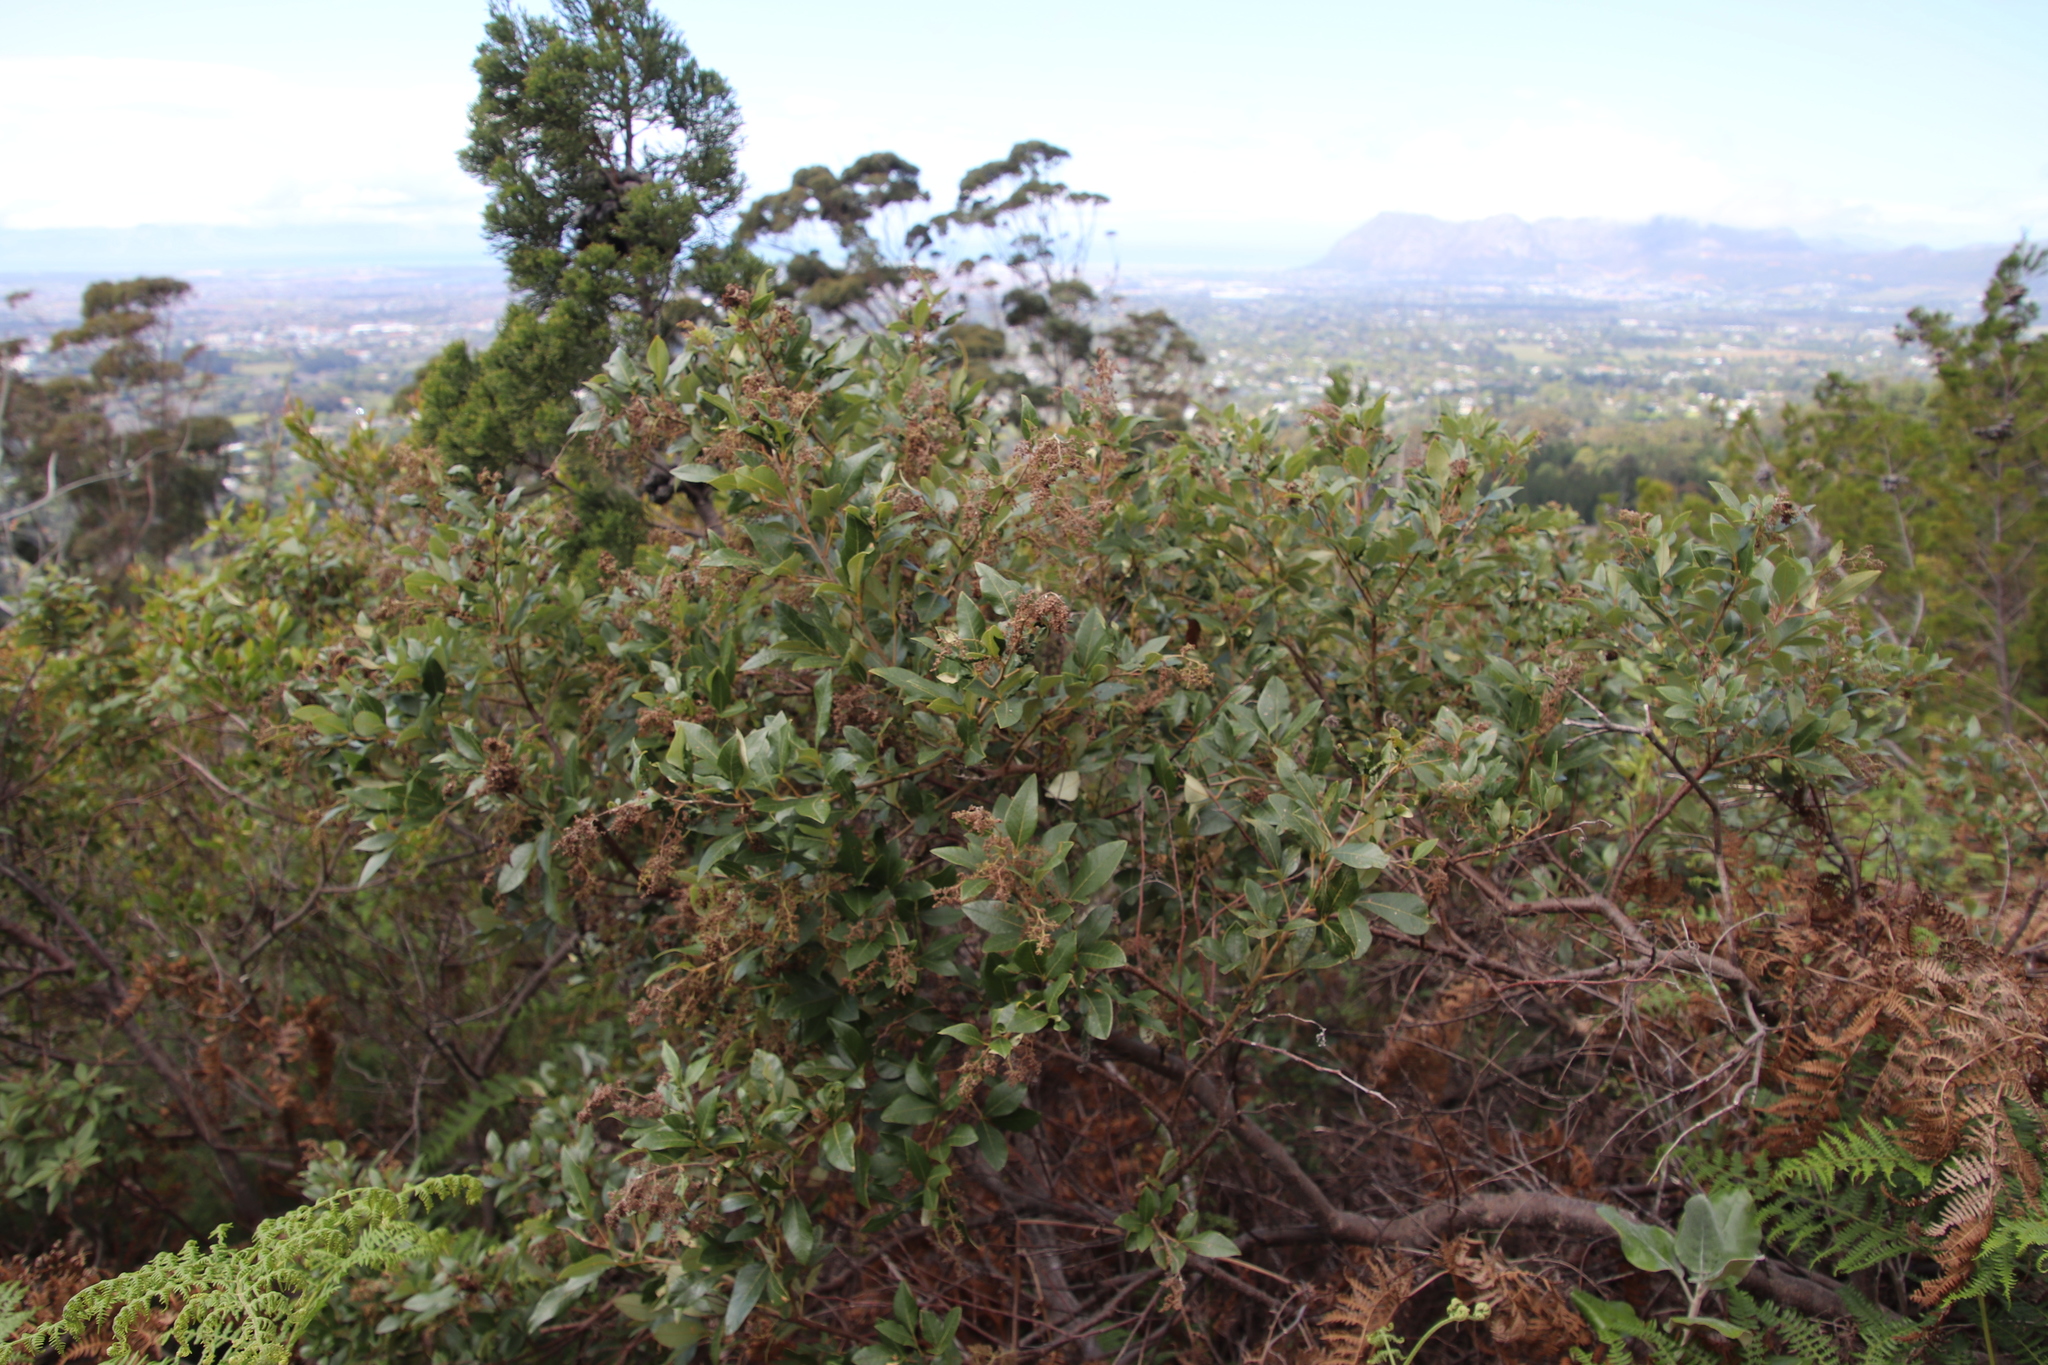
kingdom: Plantae
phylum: Tracheophyta
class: Magnoliopsida
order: Sapindales
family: Anacardiaceae
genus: Searsia
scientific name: Searsia tomentosa
